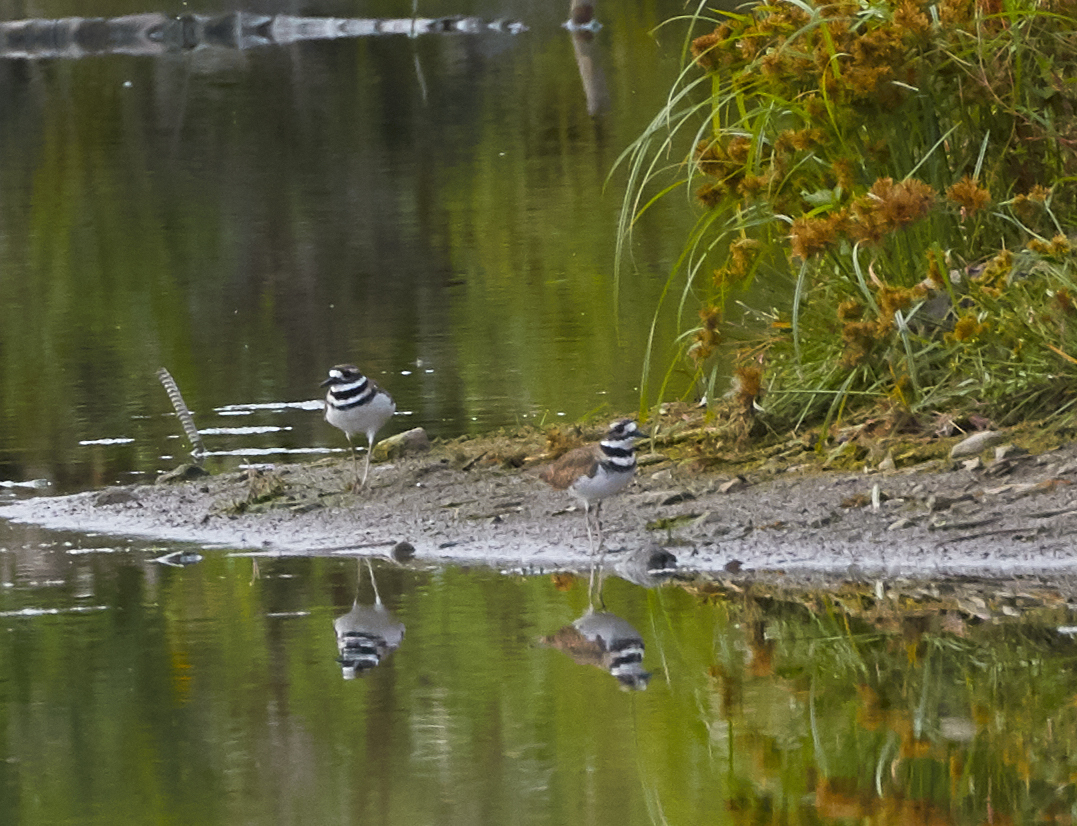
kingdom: Animalia
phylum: Chordata
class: Aves
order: Charadriiformes
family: Charadriidae
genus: Charadrius
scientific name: Charadrius vociferus
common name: Killdeer
